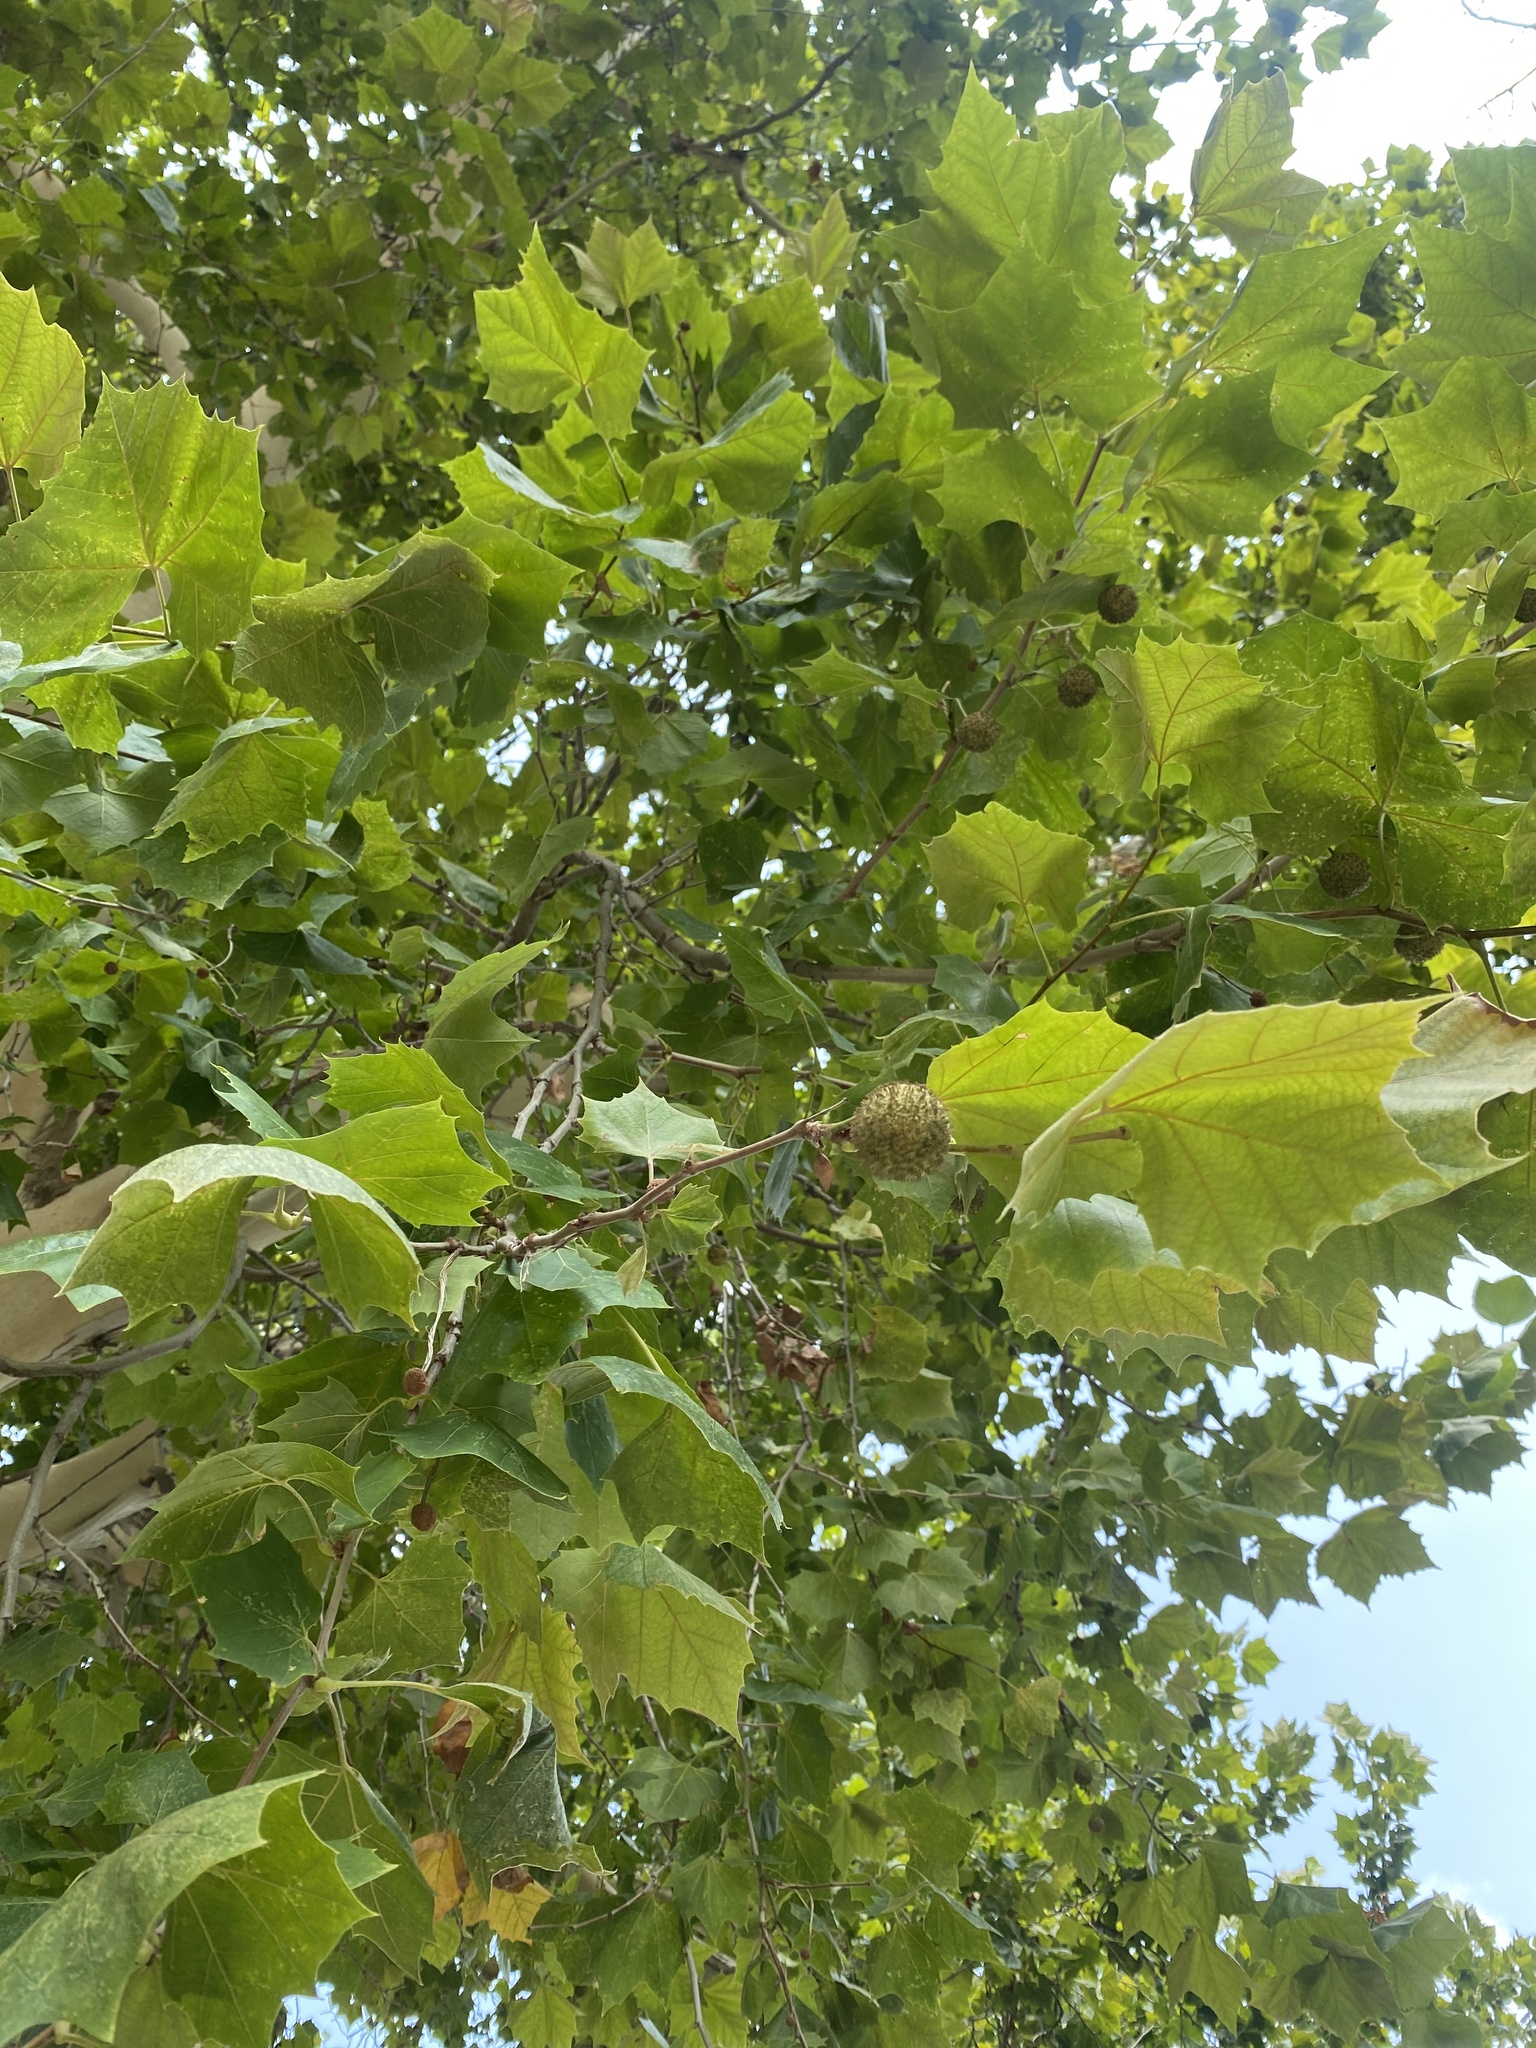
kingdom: Plantae
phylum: Tracheophyta
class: Magnoliopsida
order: Proteales
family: Platanaceae
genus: Platanus
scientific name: Platanus occidentalis
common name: American sycamore
